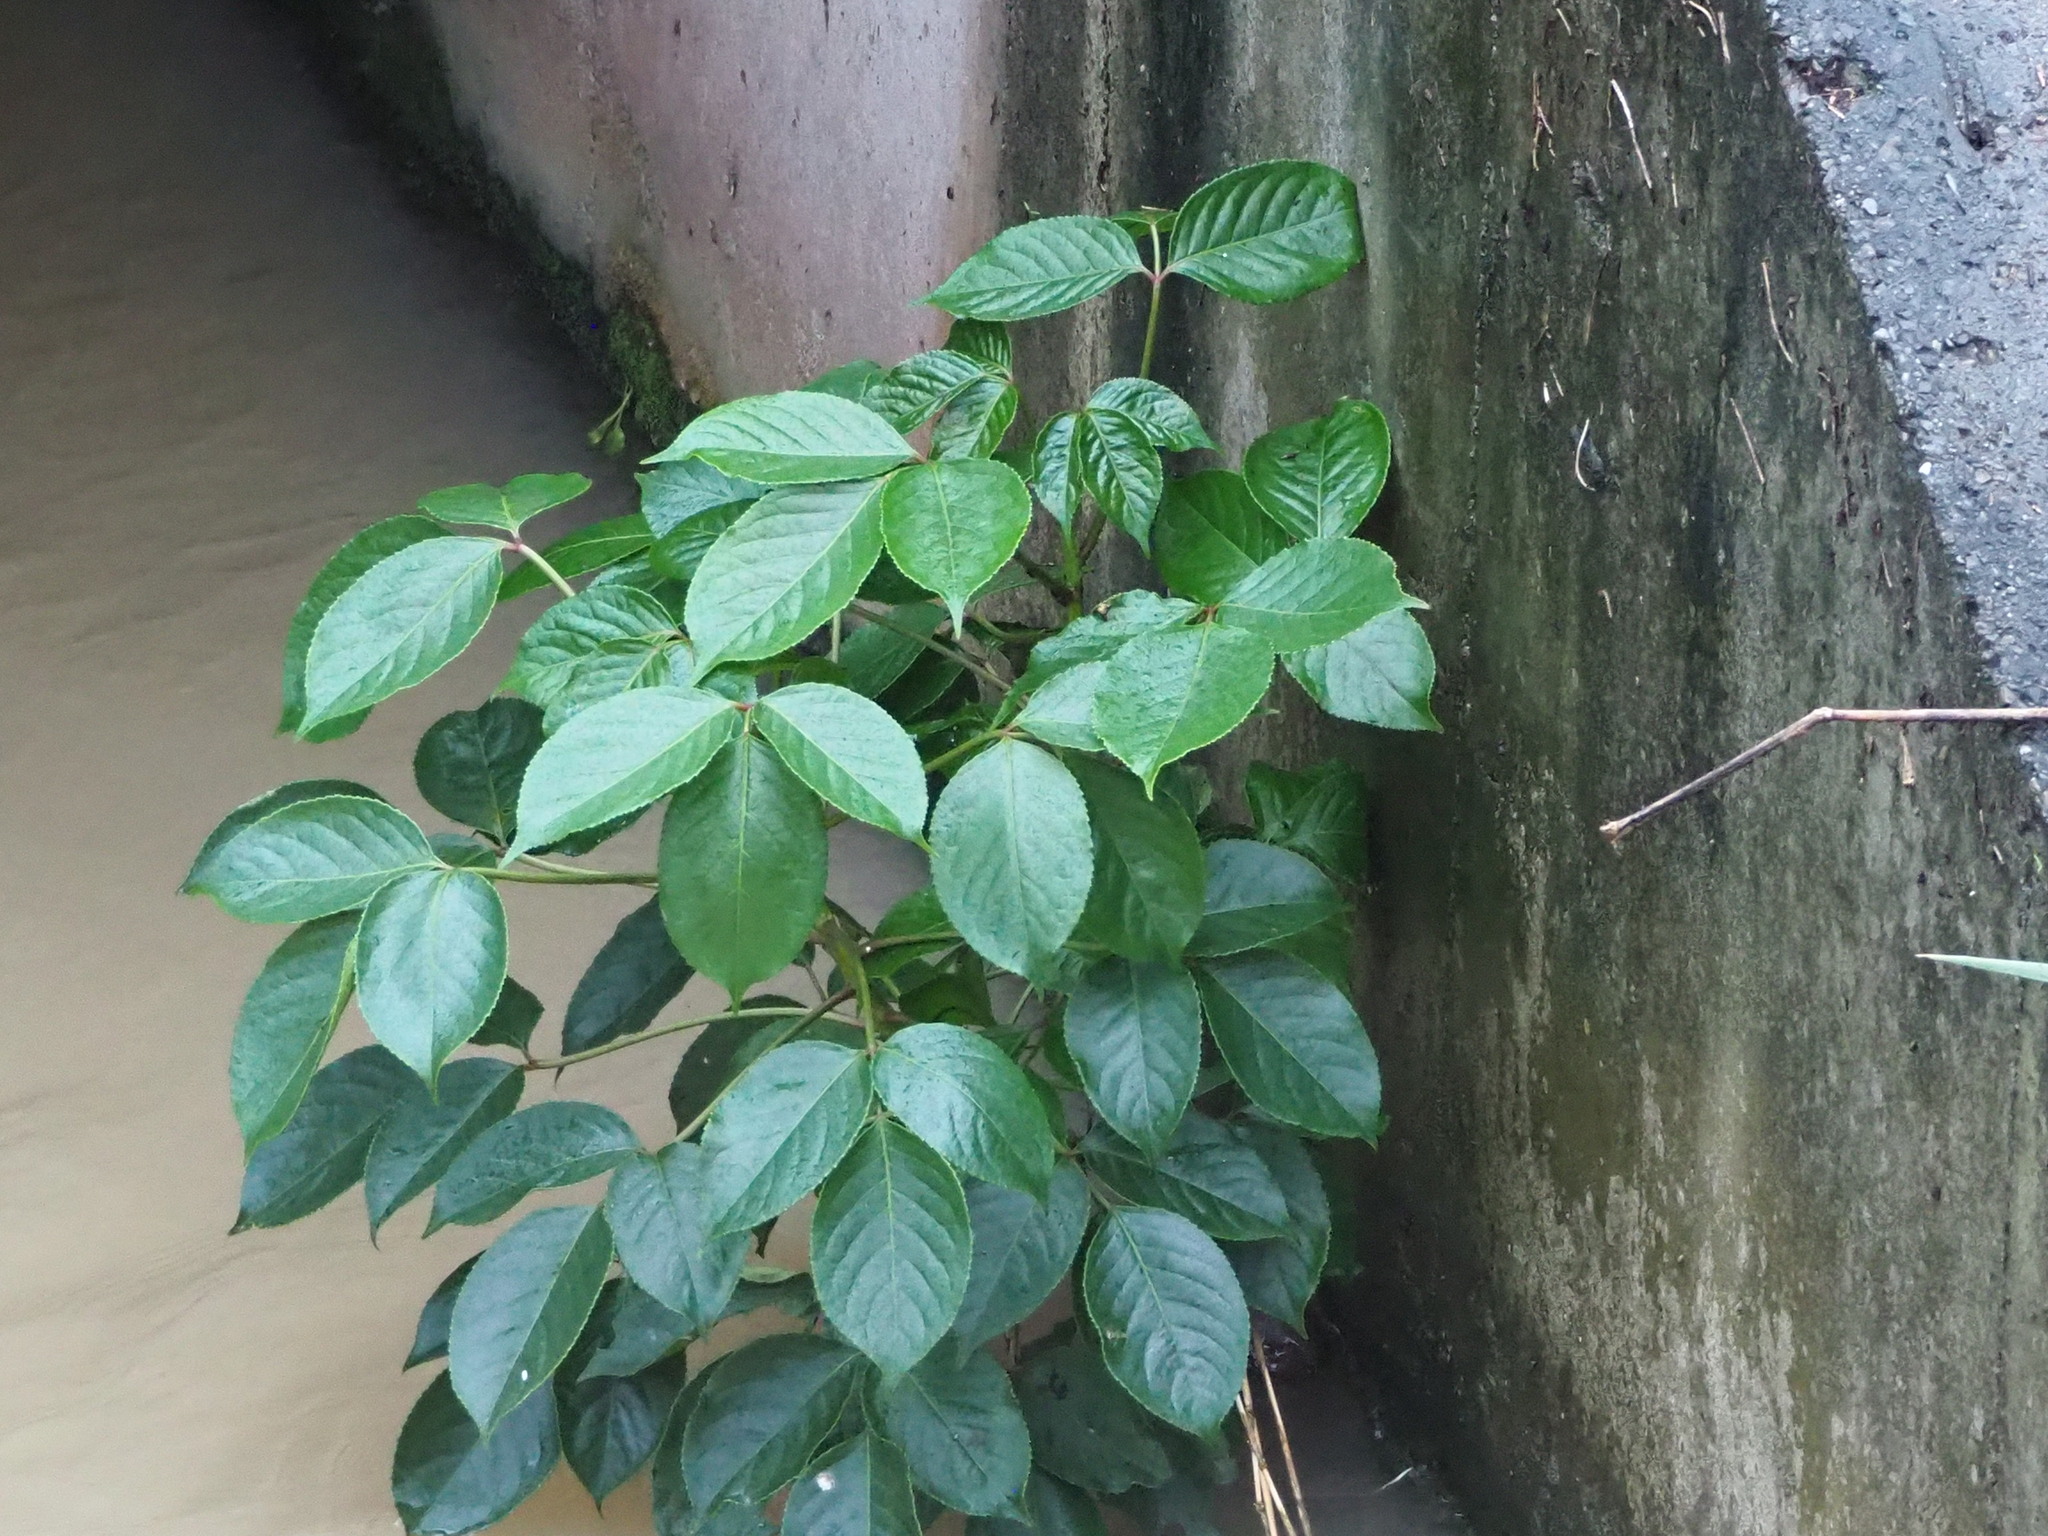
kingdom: Plantae
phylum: Tracheophyta
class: Magnoliopsida
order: Malpighiales
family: Phyllanthaceae
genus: Bischofia
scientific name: Bischofia javanica
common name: Javanese bishopwood
